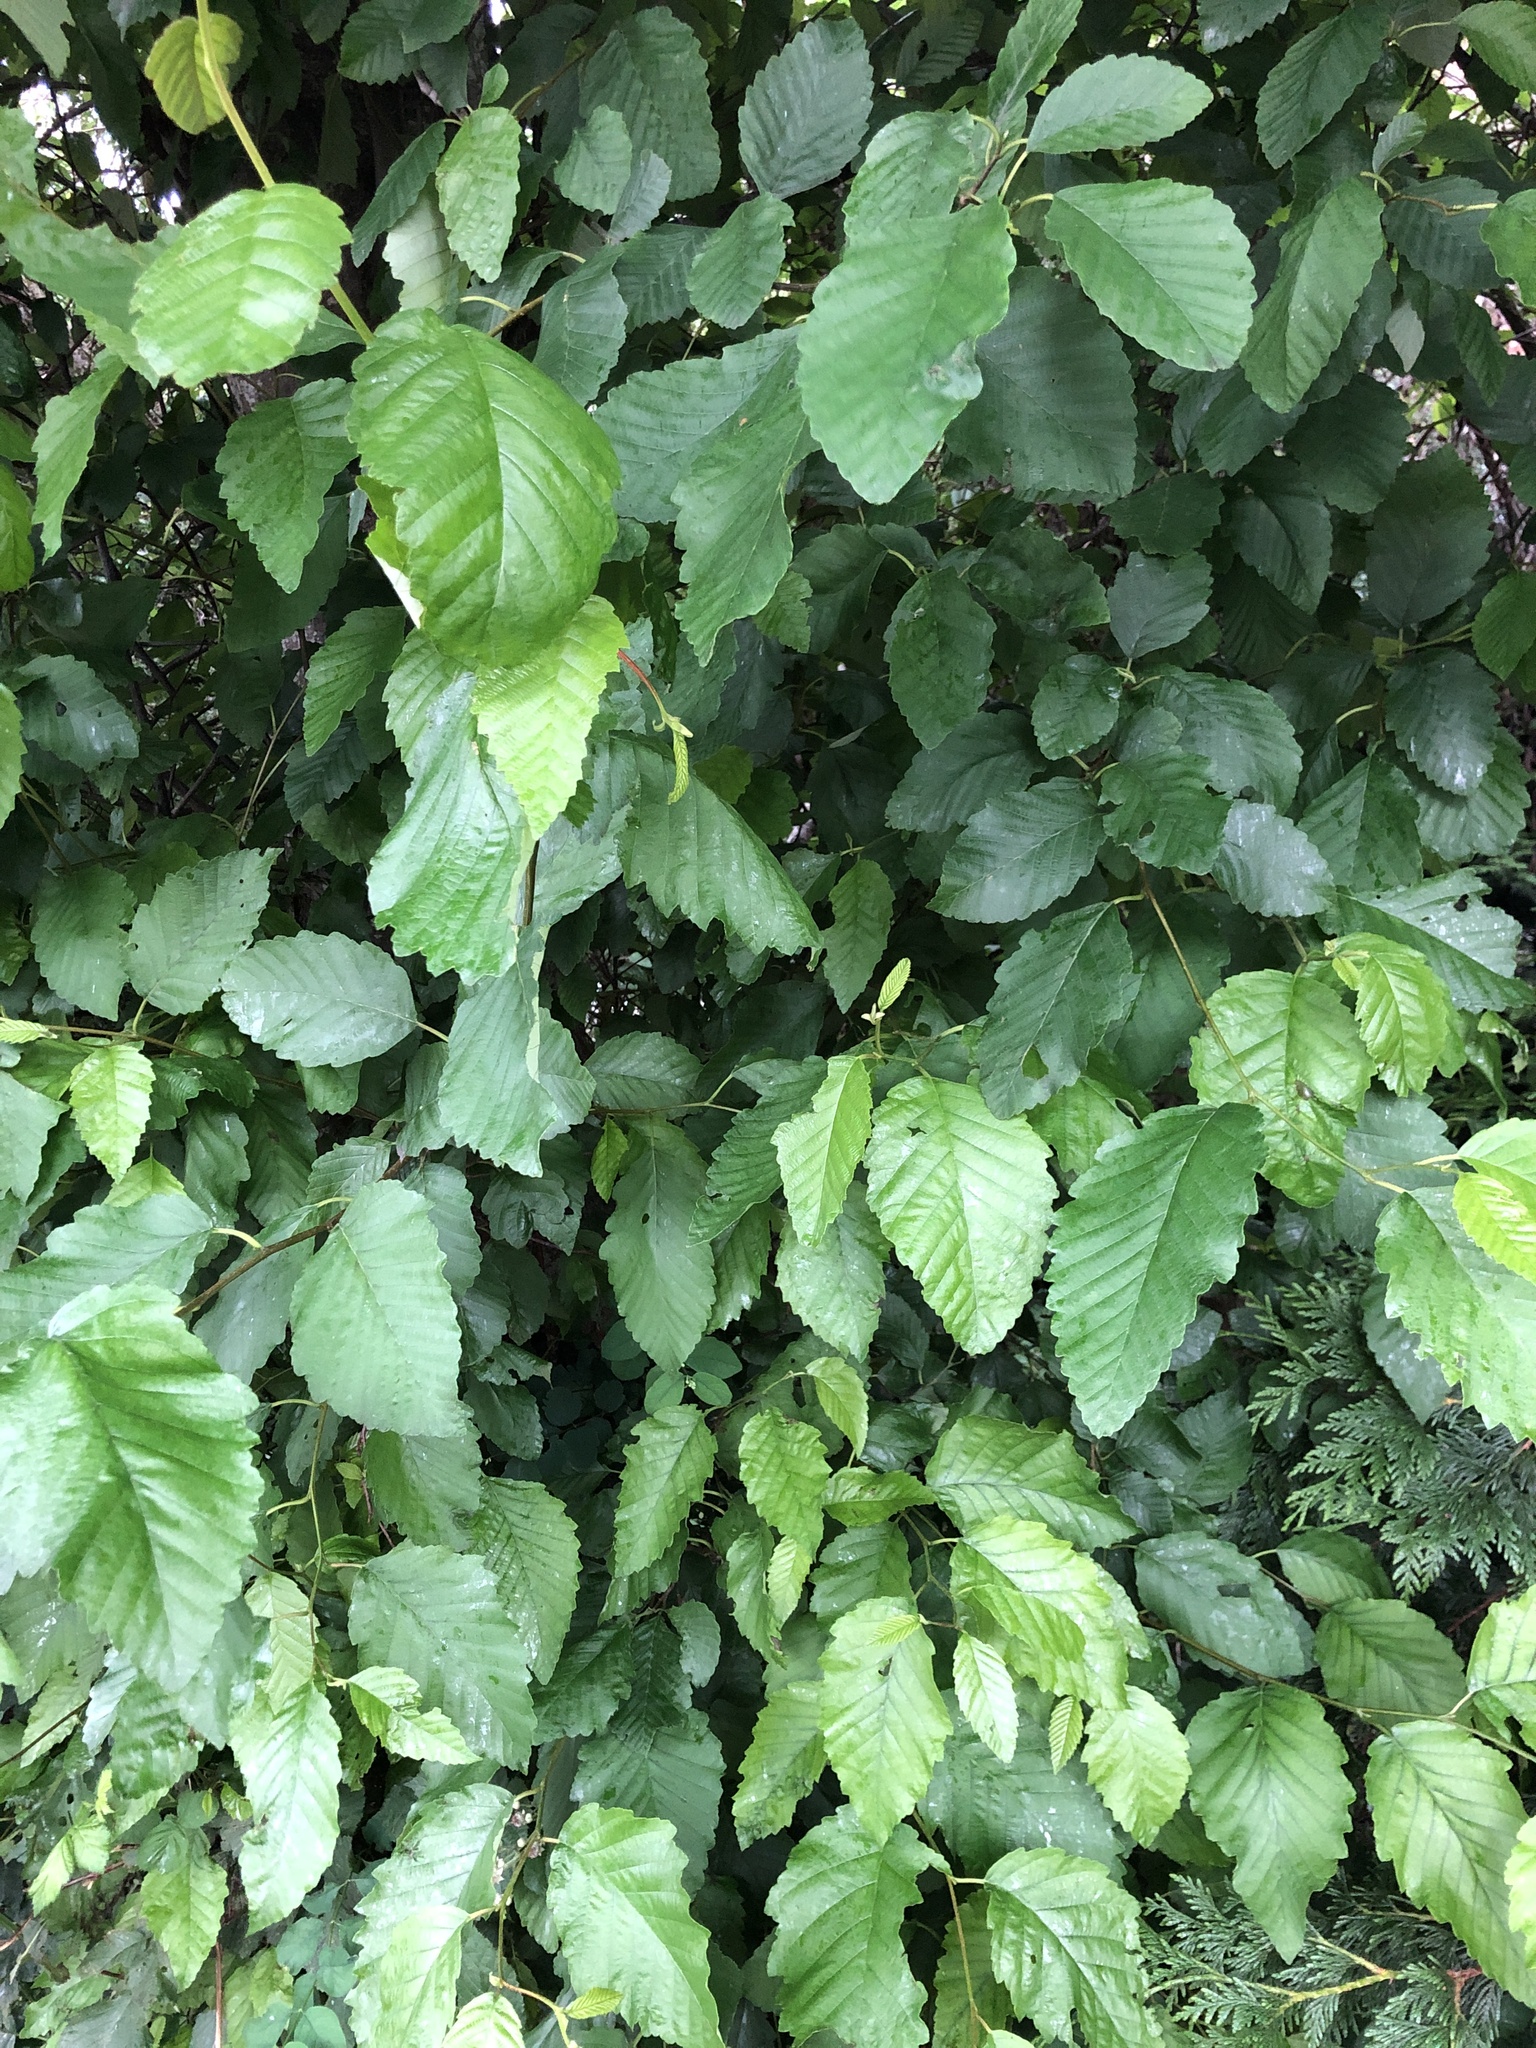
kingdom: Plantae
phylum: Tracheophyta
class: Magnoliopsida
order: Fagales
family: Betulaceae
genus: Alnus
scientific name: Alnus rubra
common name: Red alder
